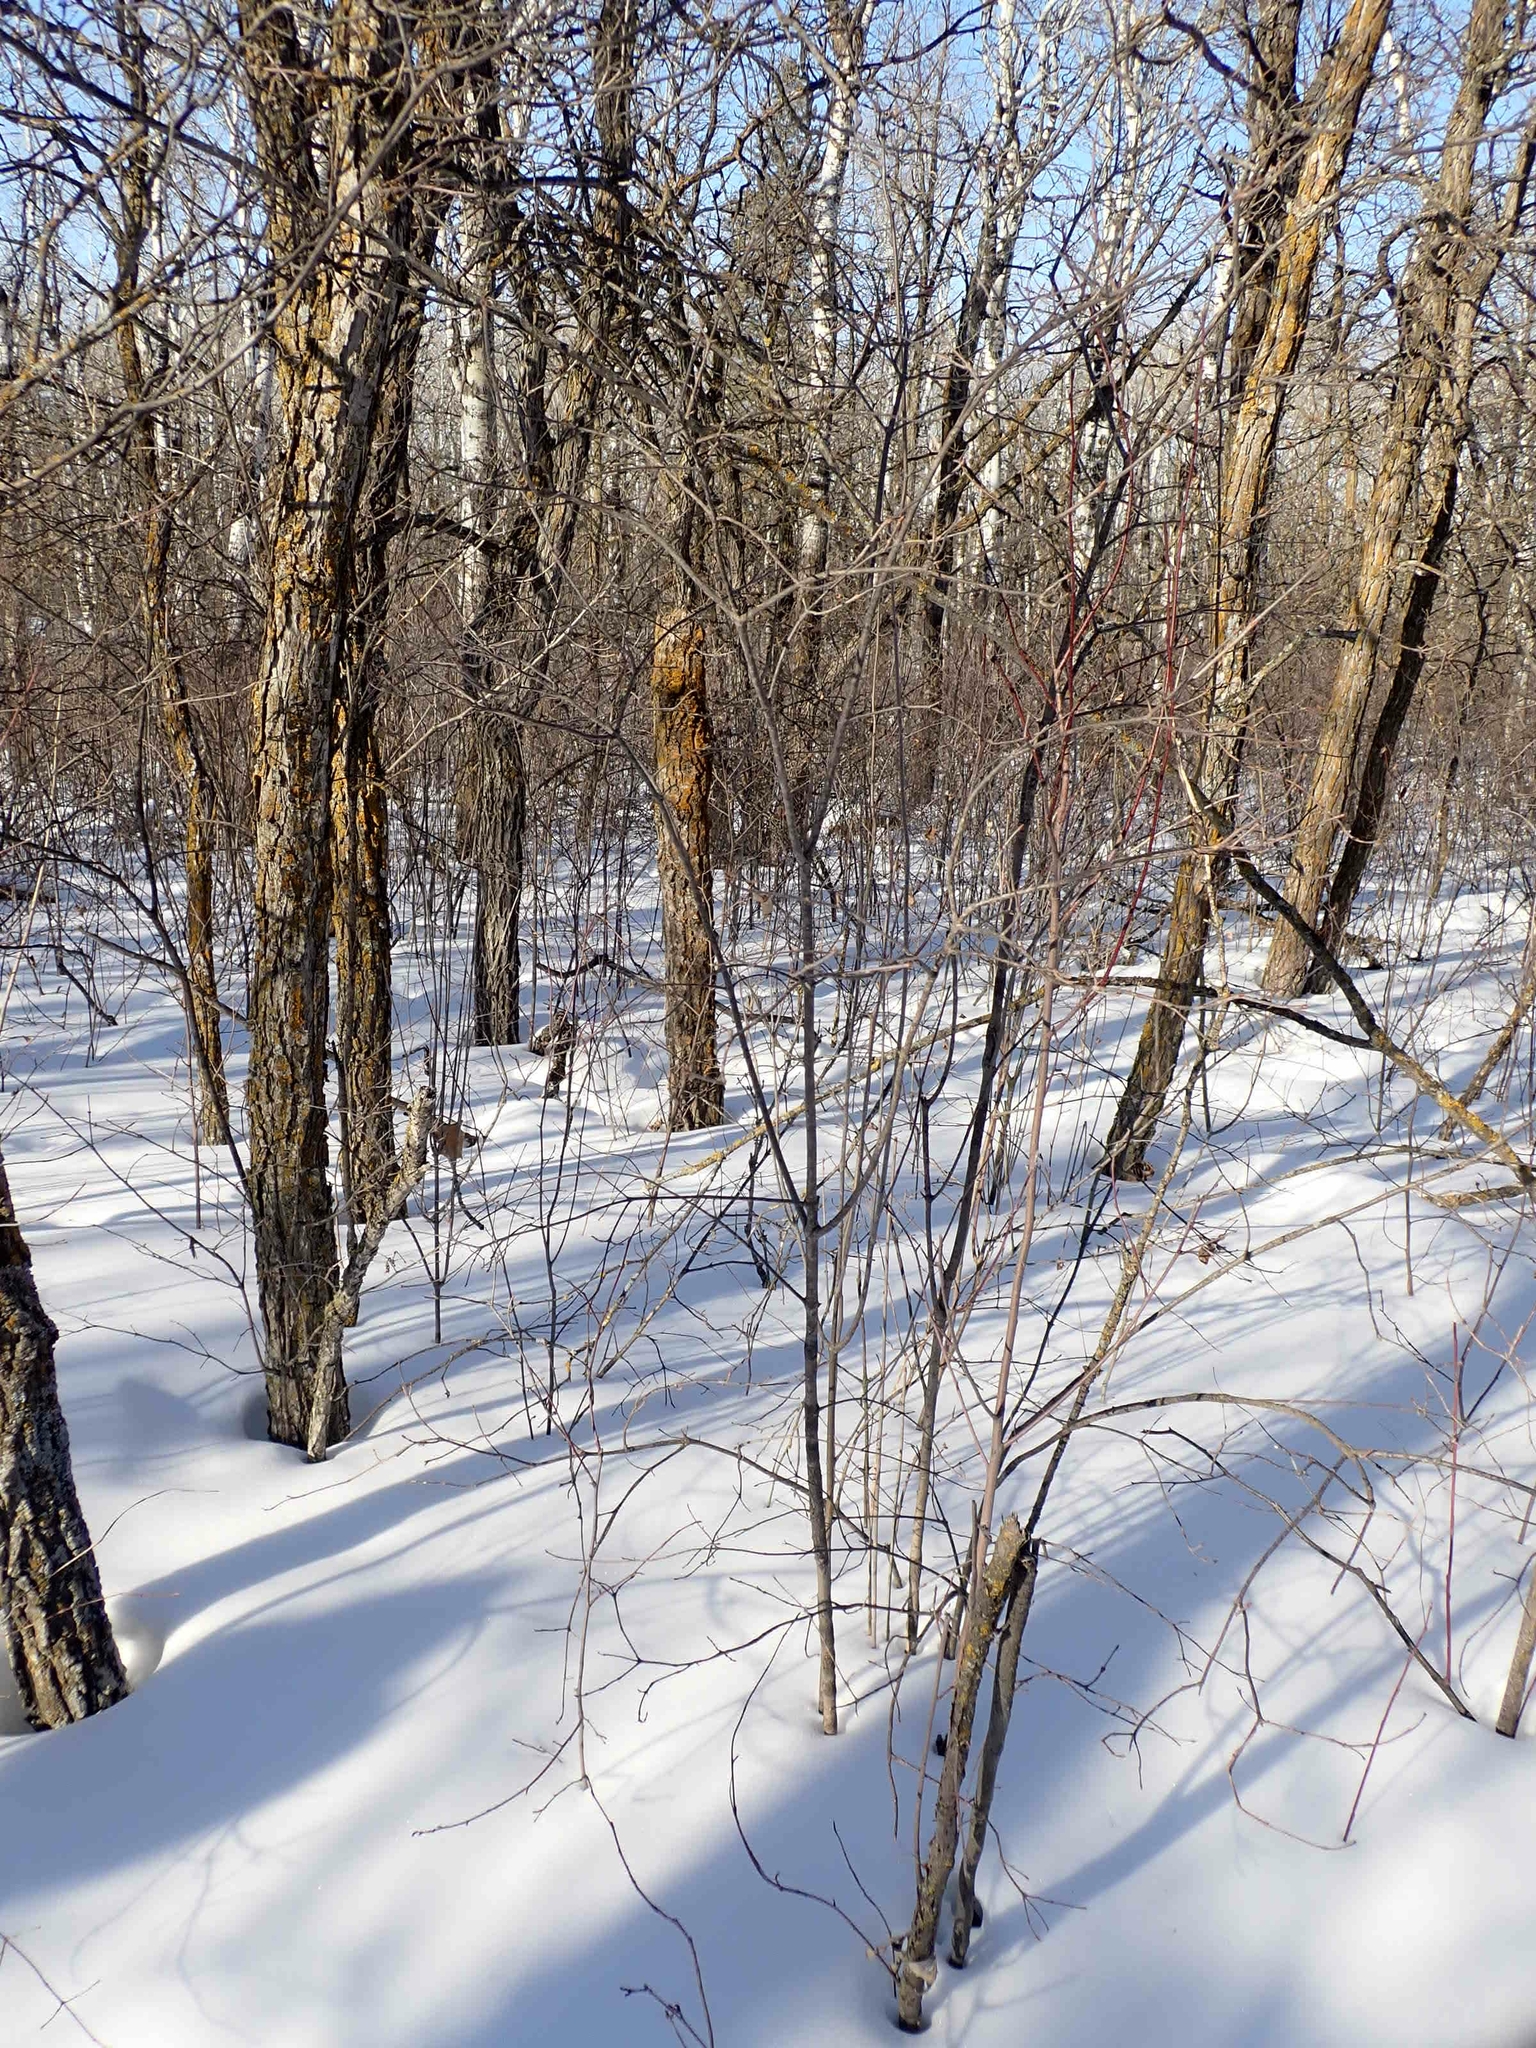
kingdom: Plantae
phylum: Tracheophyta
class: Magnoliopsida
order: Cornales
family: Cornaceae
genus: Cornus
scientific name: Cornus racemosa
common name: Panicled dogwood
